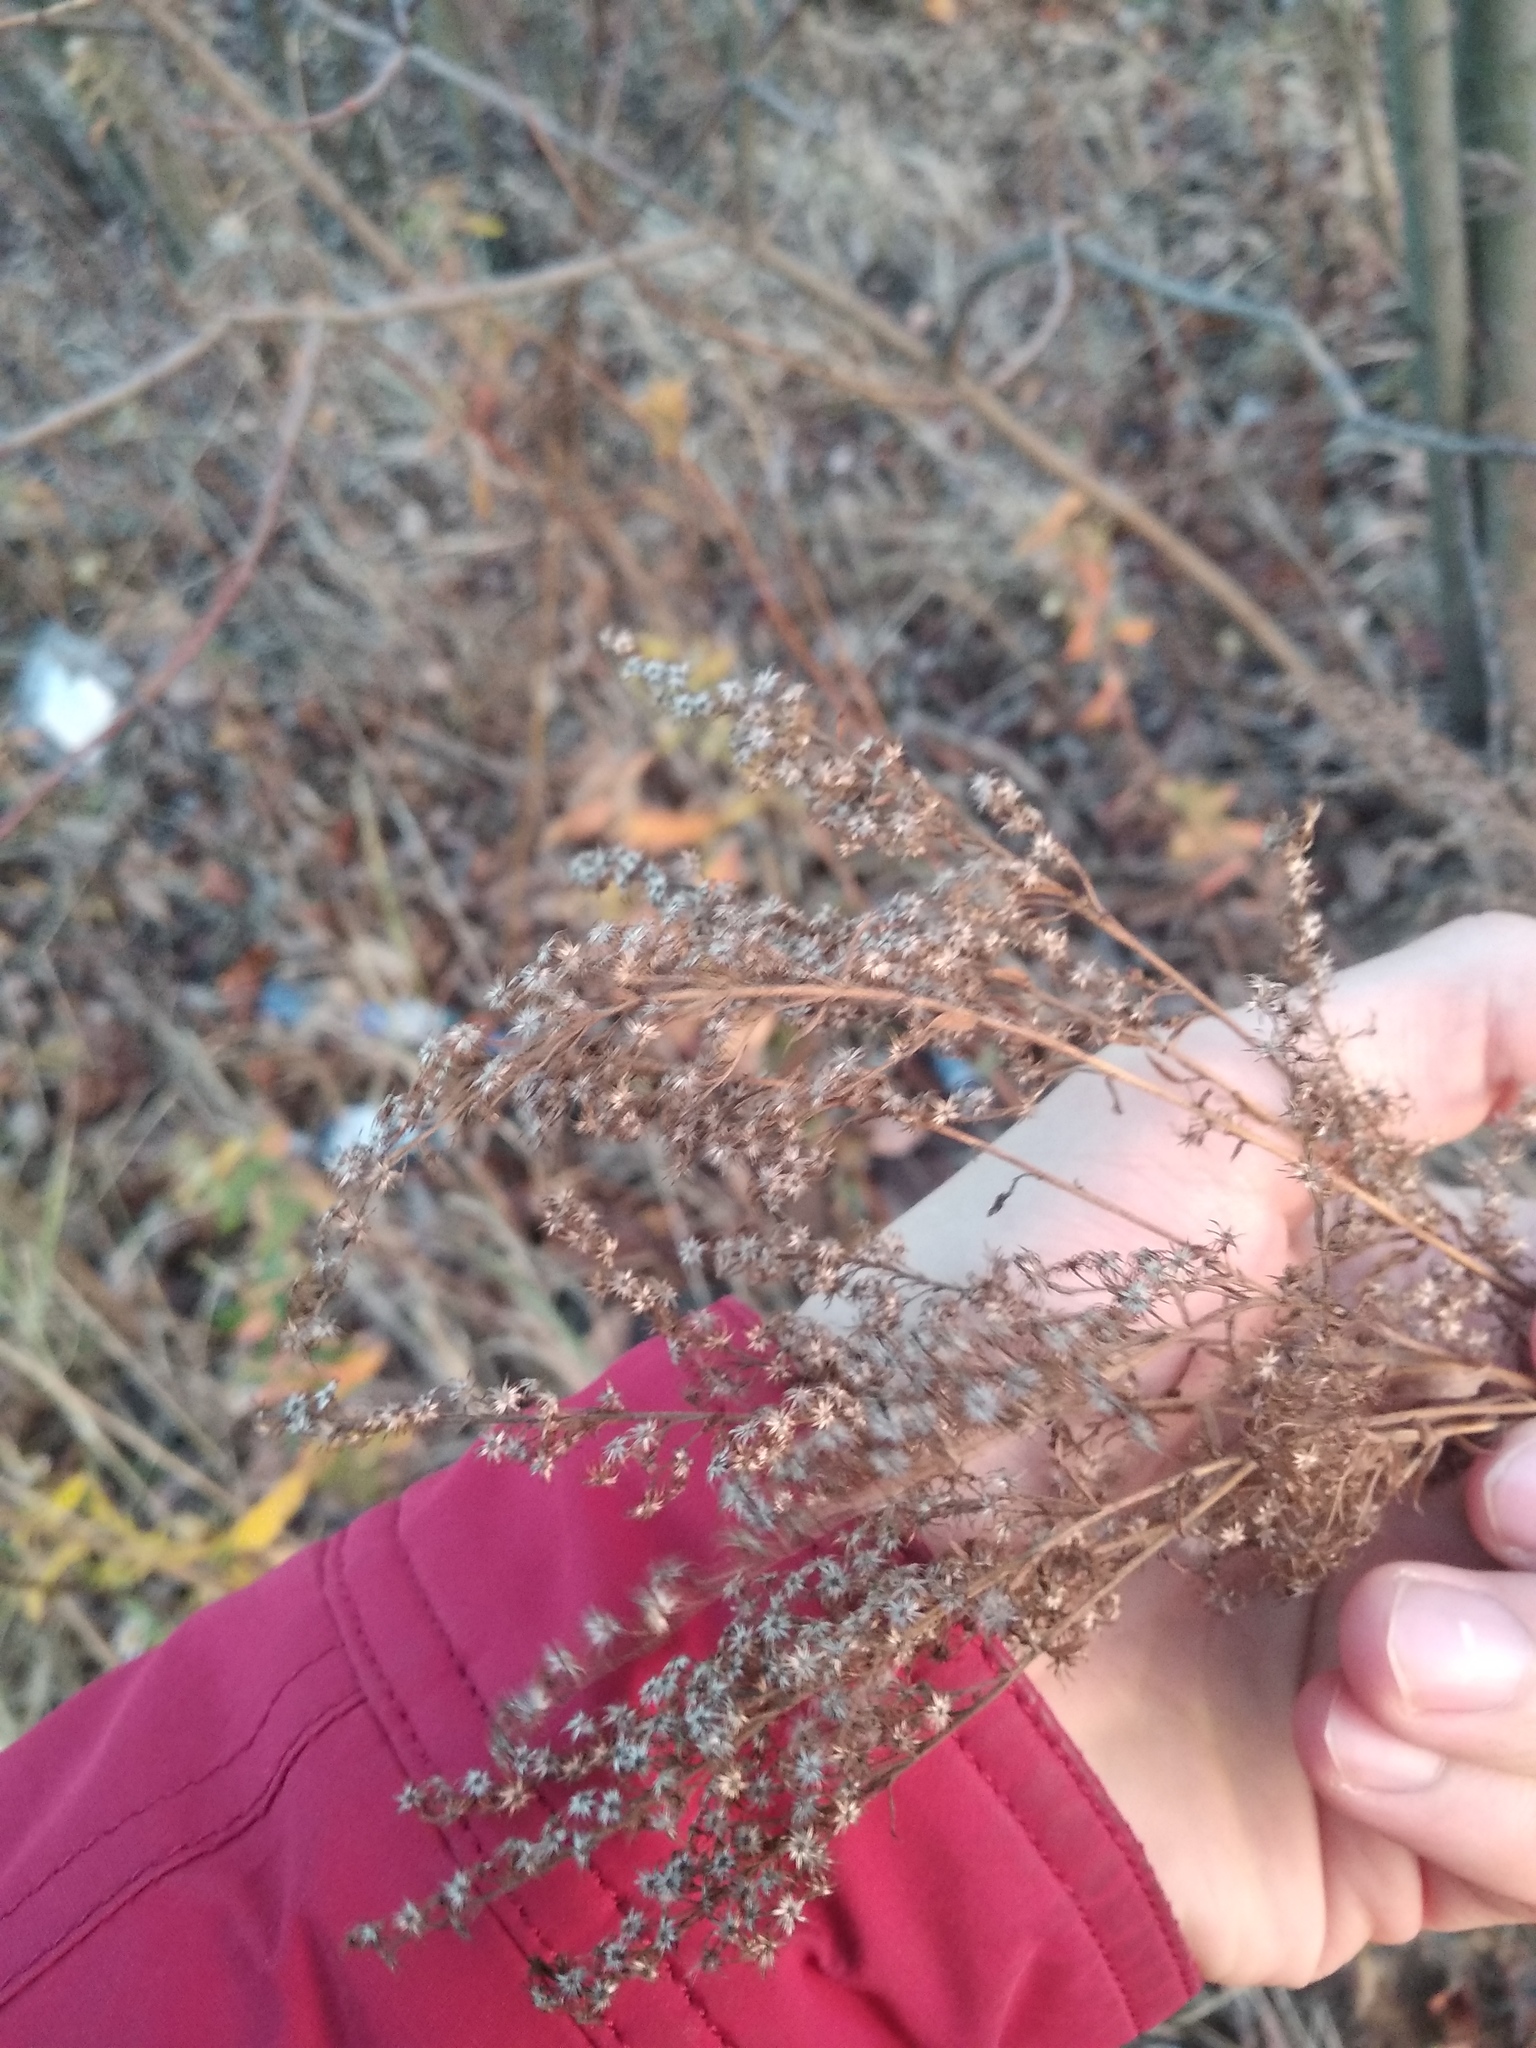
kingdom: Plantae
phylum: Tracheophyta
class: Magnoliopsida
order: Asterales
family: Asteraceae
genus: Solidago
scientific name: Solidago canadensis
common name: Canada goldenrod
